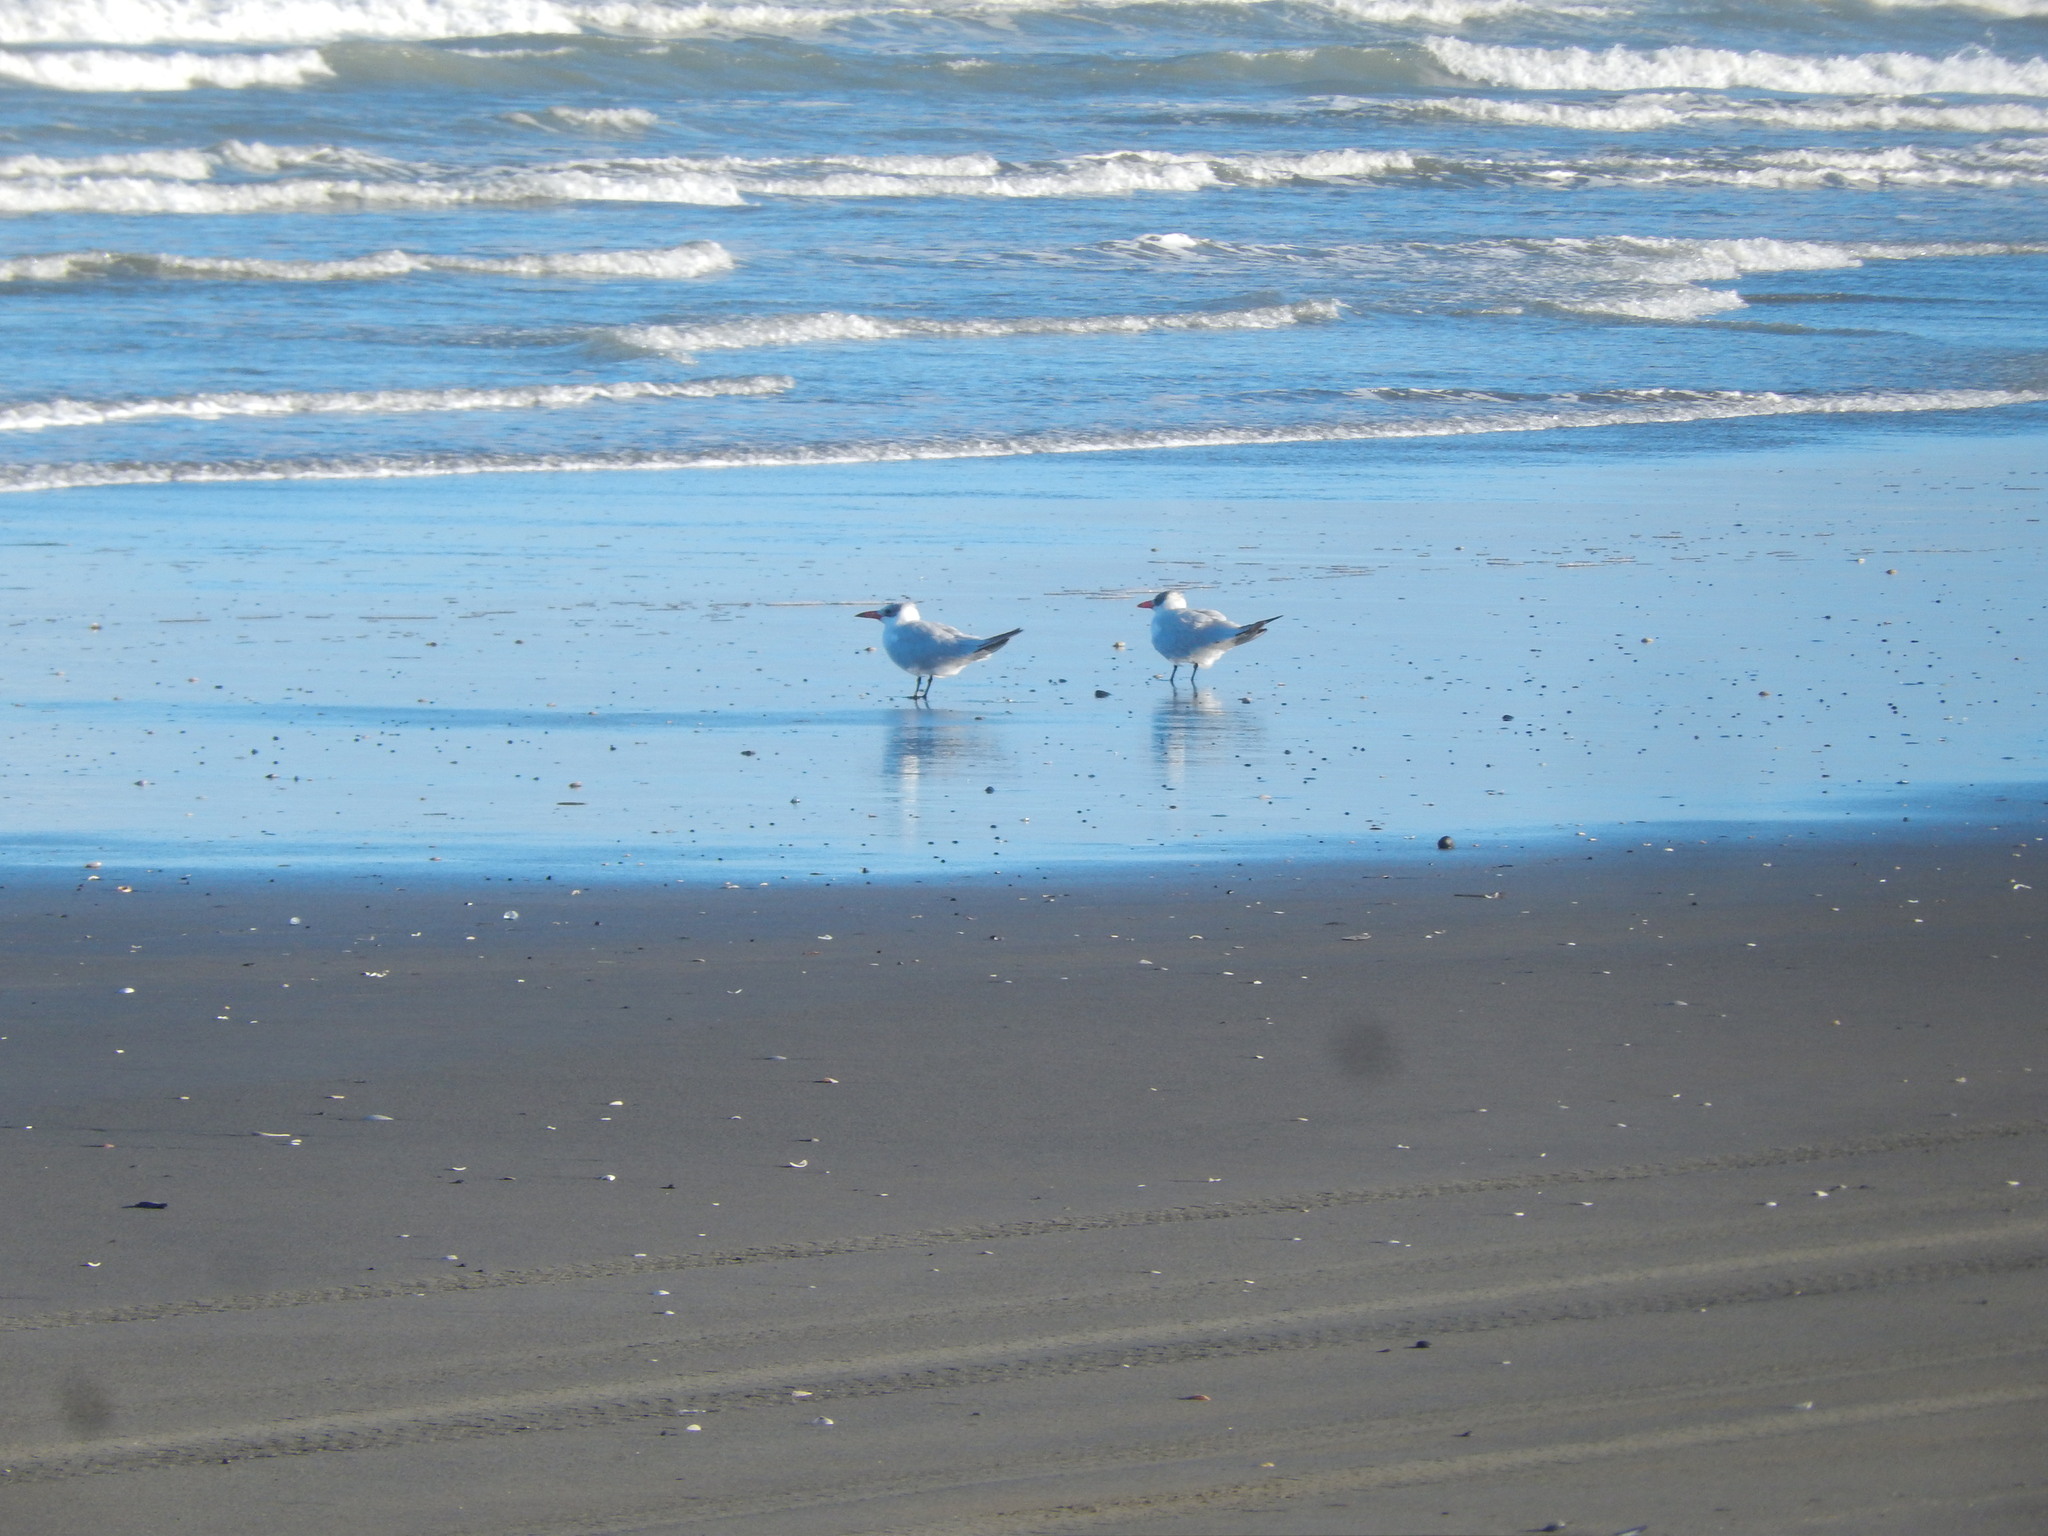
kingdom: Animalia
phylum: Chordata
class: Aves
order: Charadriiformes
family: Laridae
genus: Hydroprogne
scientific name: Hydroprogne caspia
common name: Caspian tern
